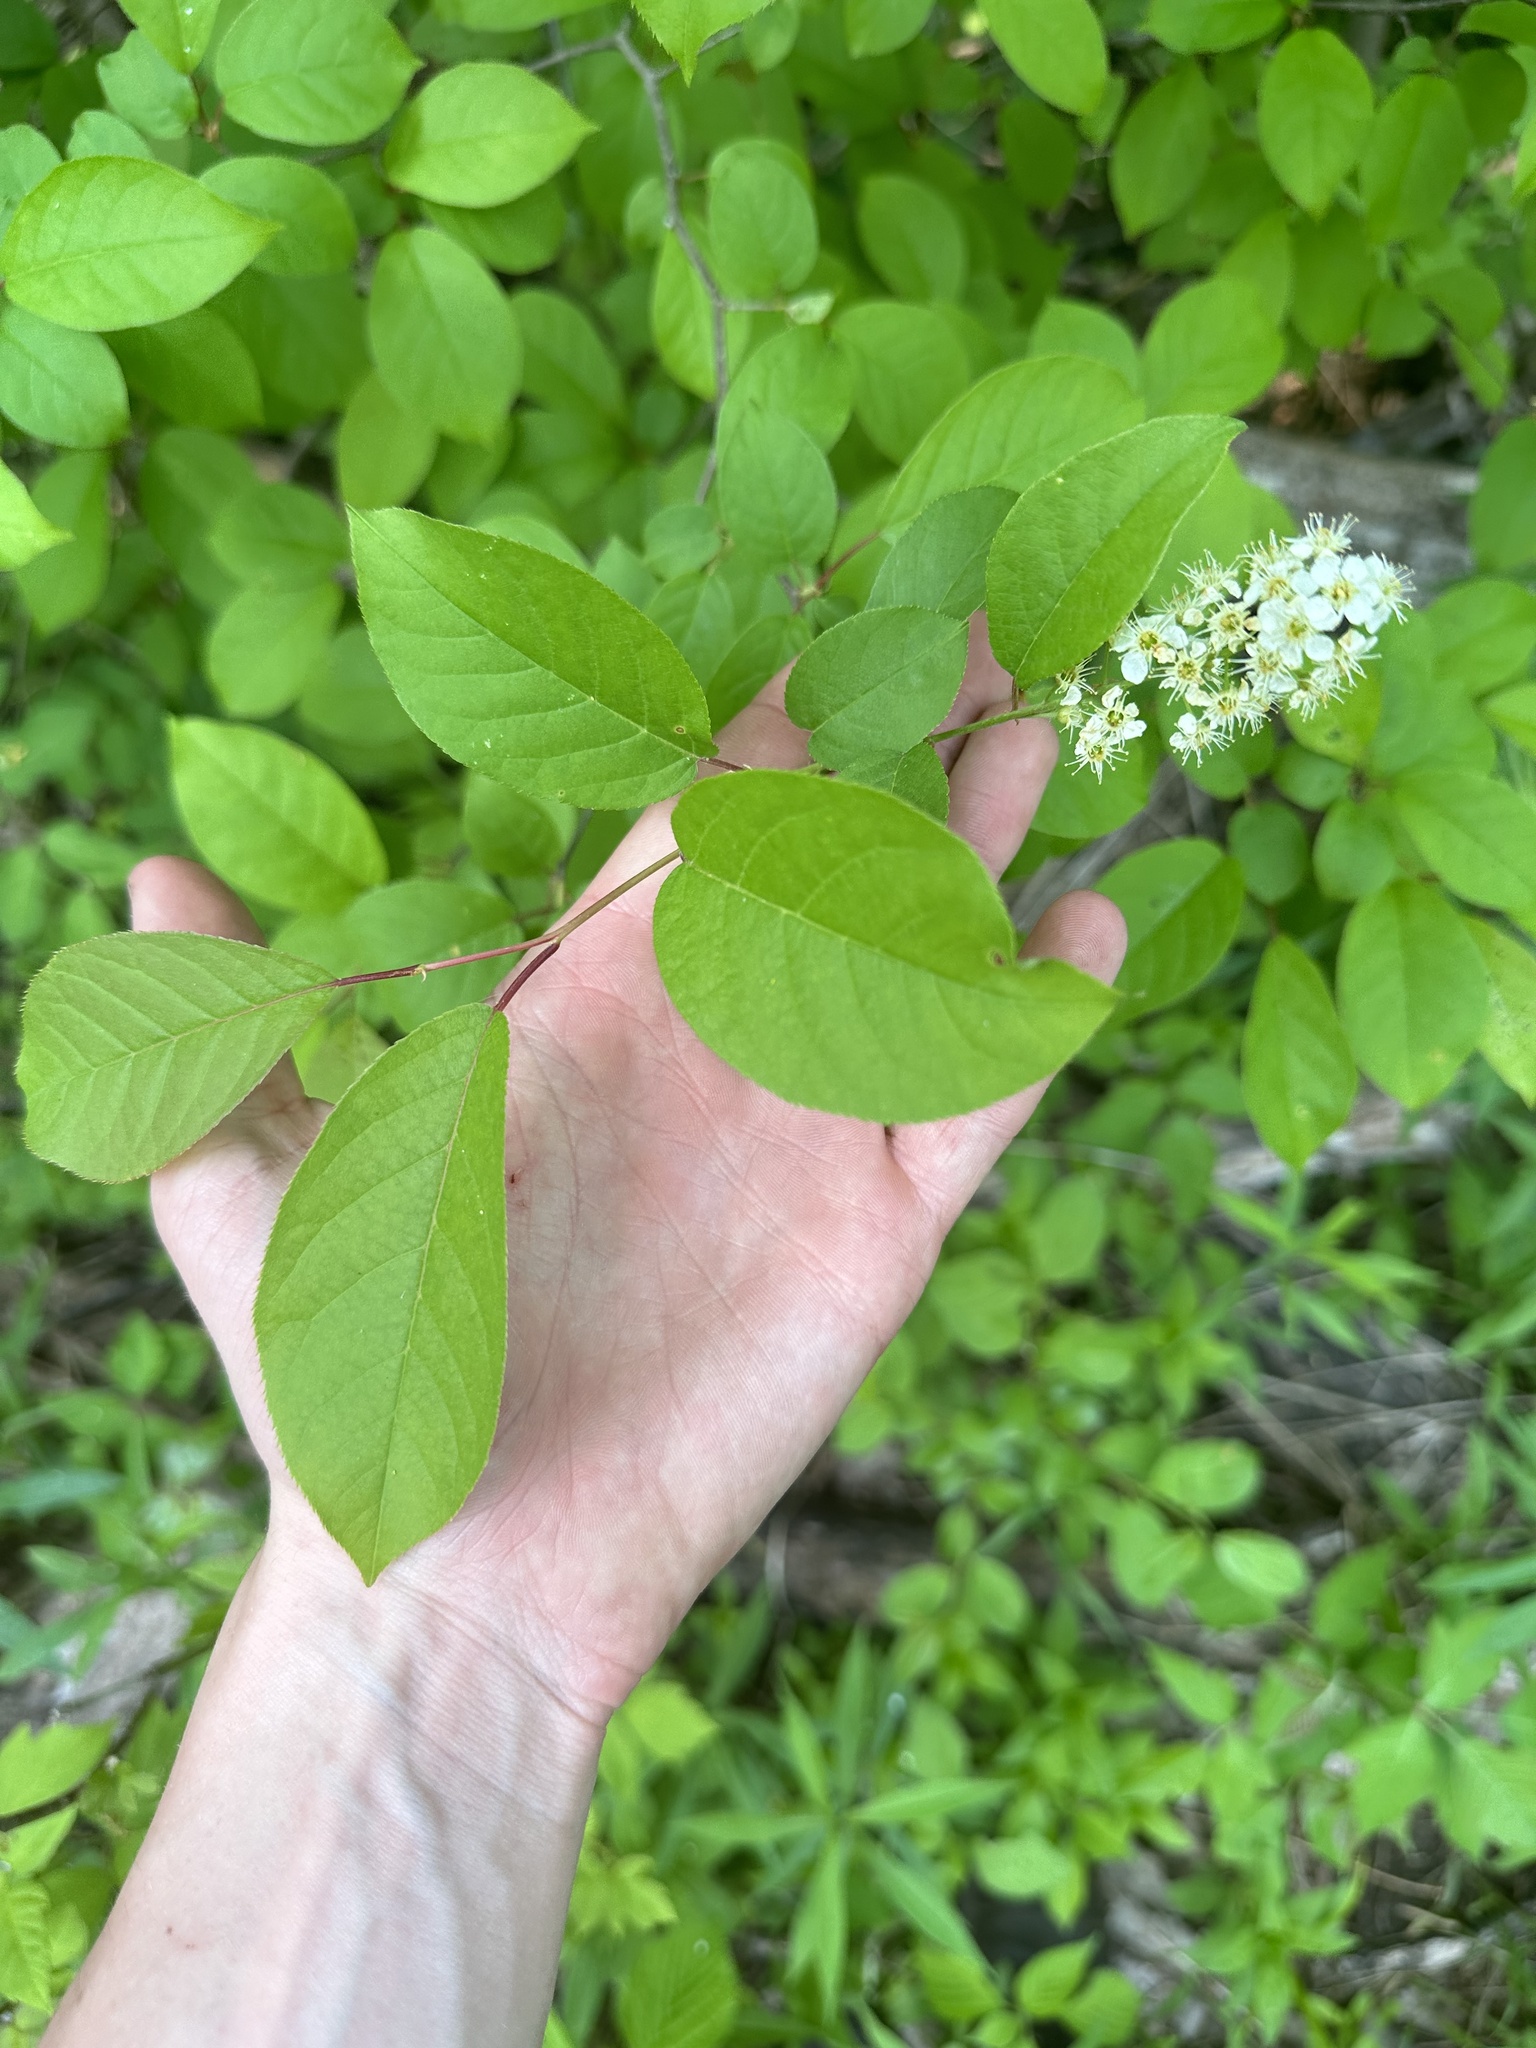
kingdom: Plantae
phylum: Tracheophyta
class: Magnoliopsida
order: Rosales
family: Rosaceae
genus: Prunus
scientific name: Prunus virginiana
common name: Chokecherry
